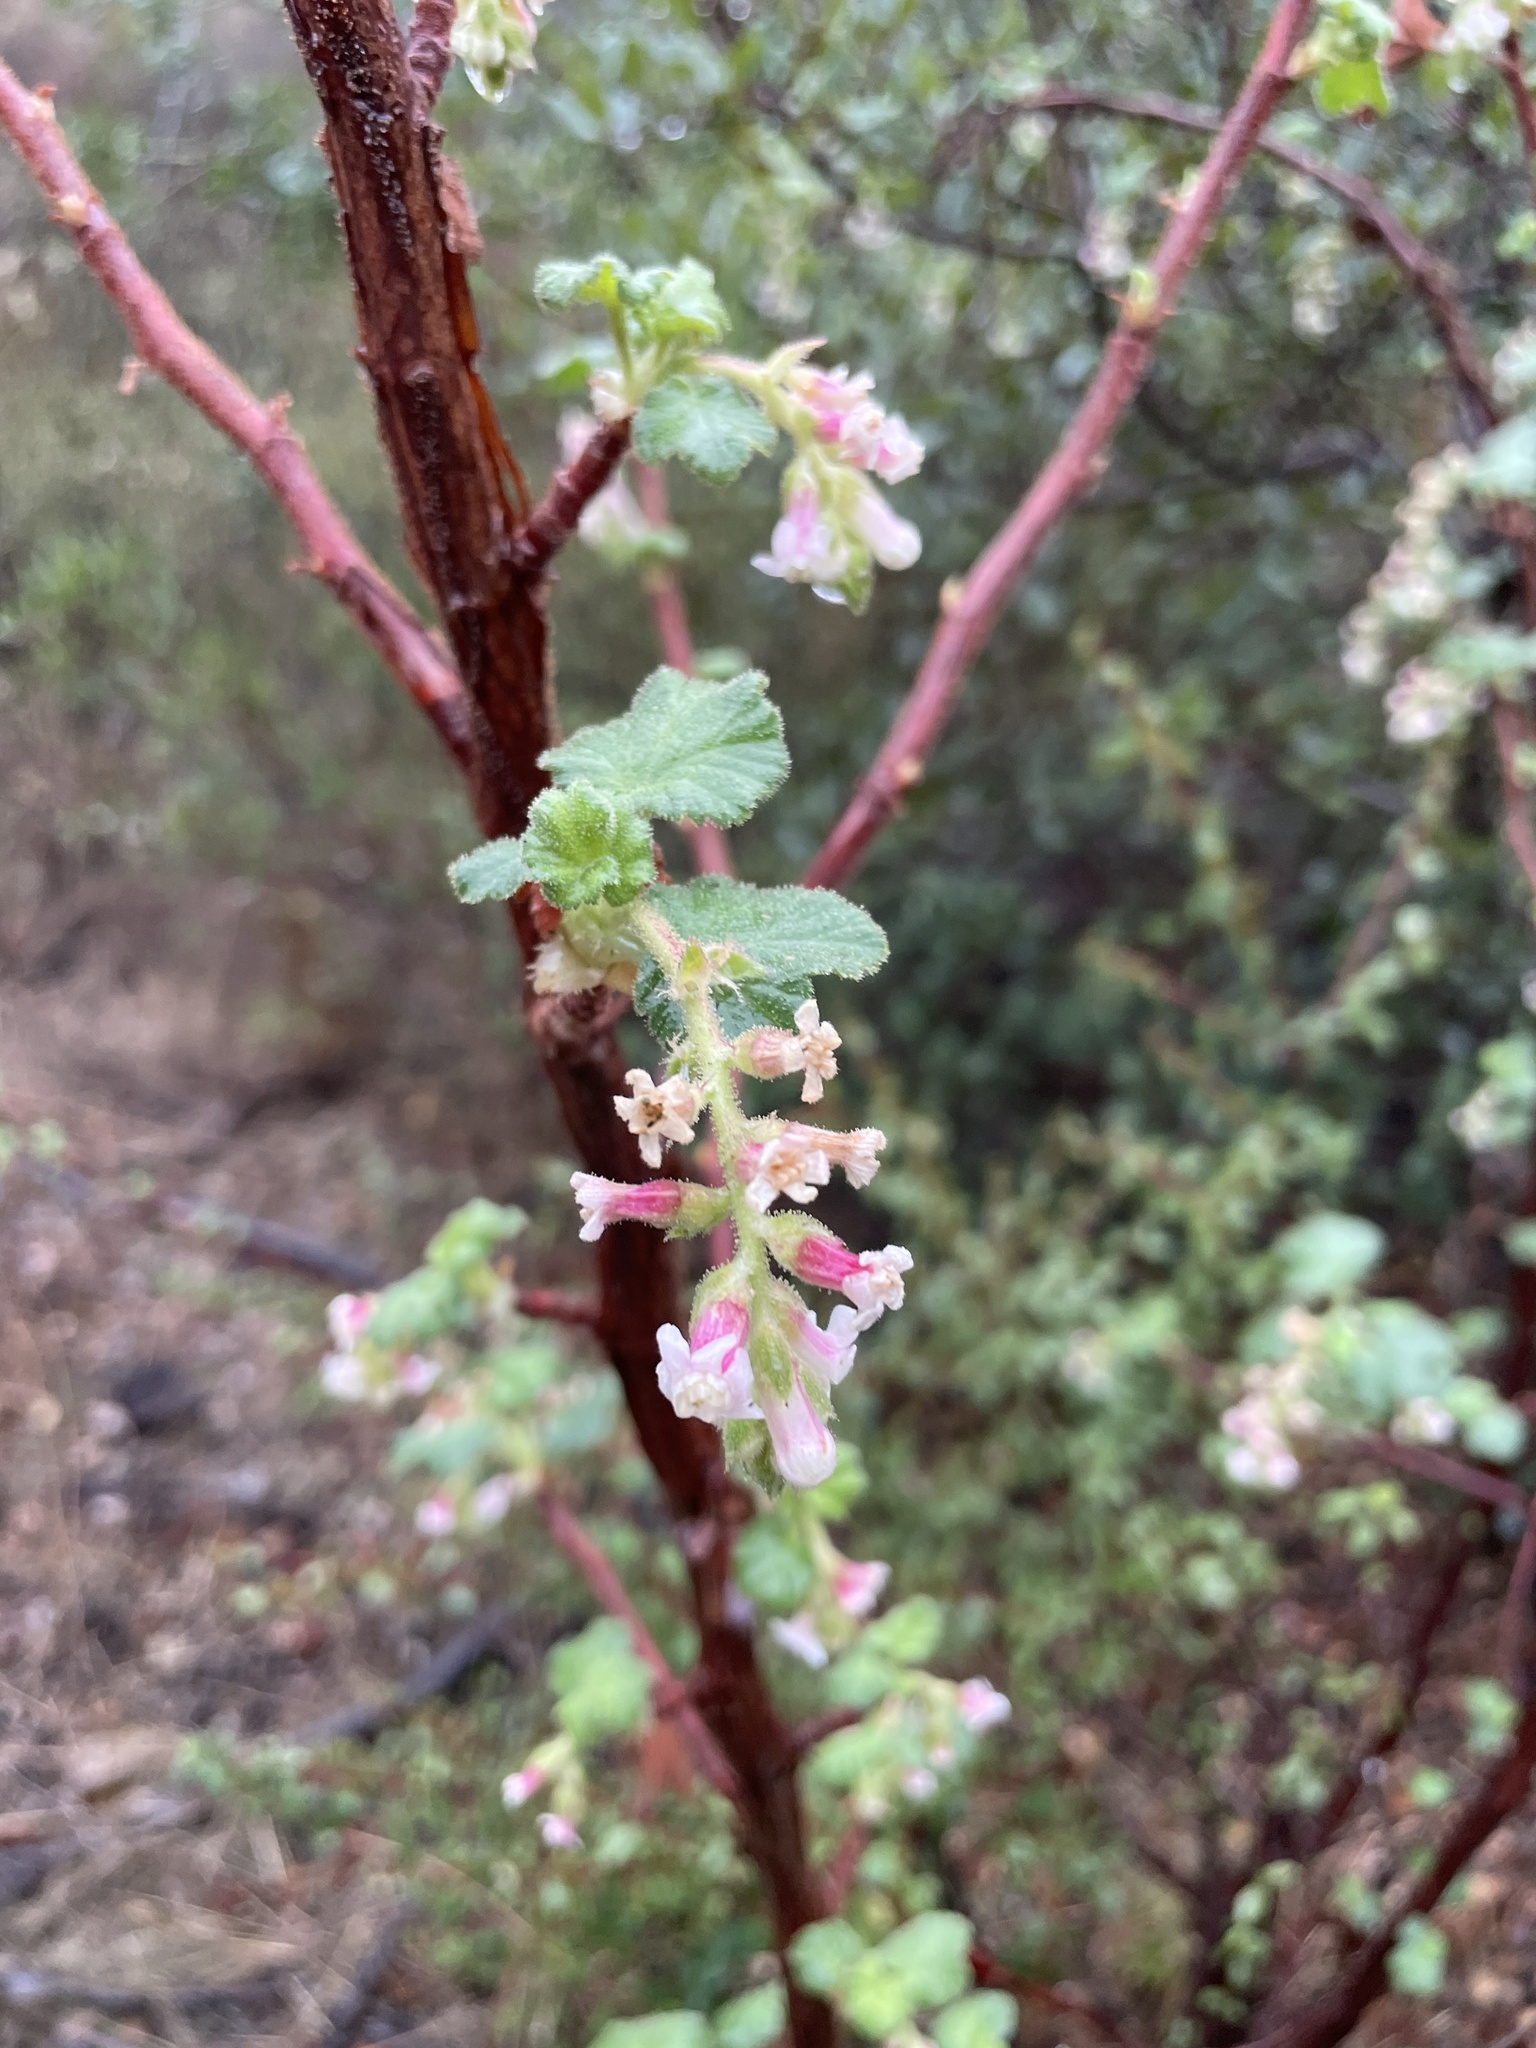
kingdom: Plantae
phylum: Tracheophyta
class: Magnoliopsida
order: Saxifragales
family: Grossulariaceae
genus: Ribes
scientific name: Ribes malvaceum
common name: Chaparral currant
